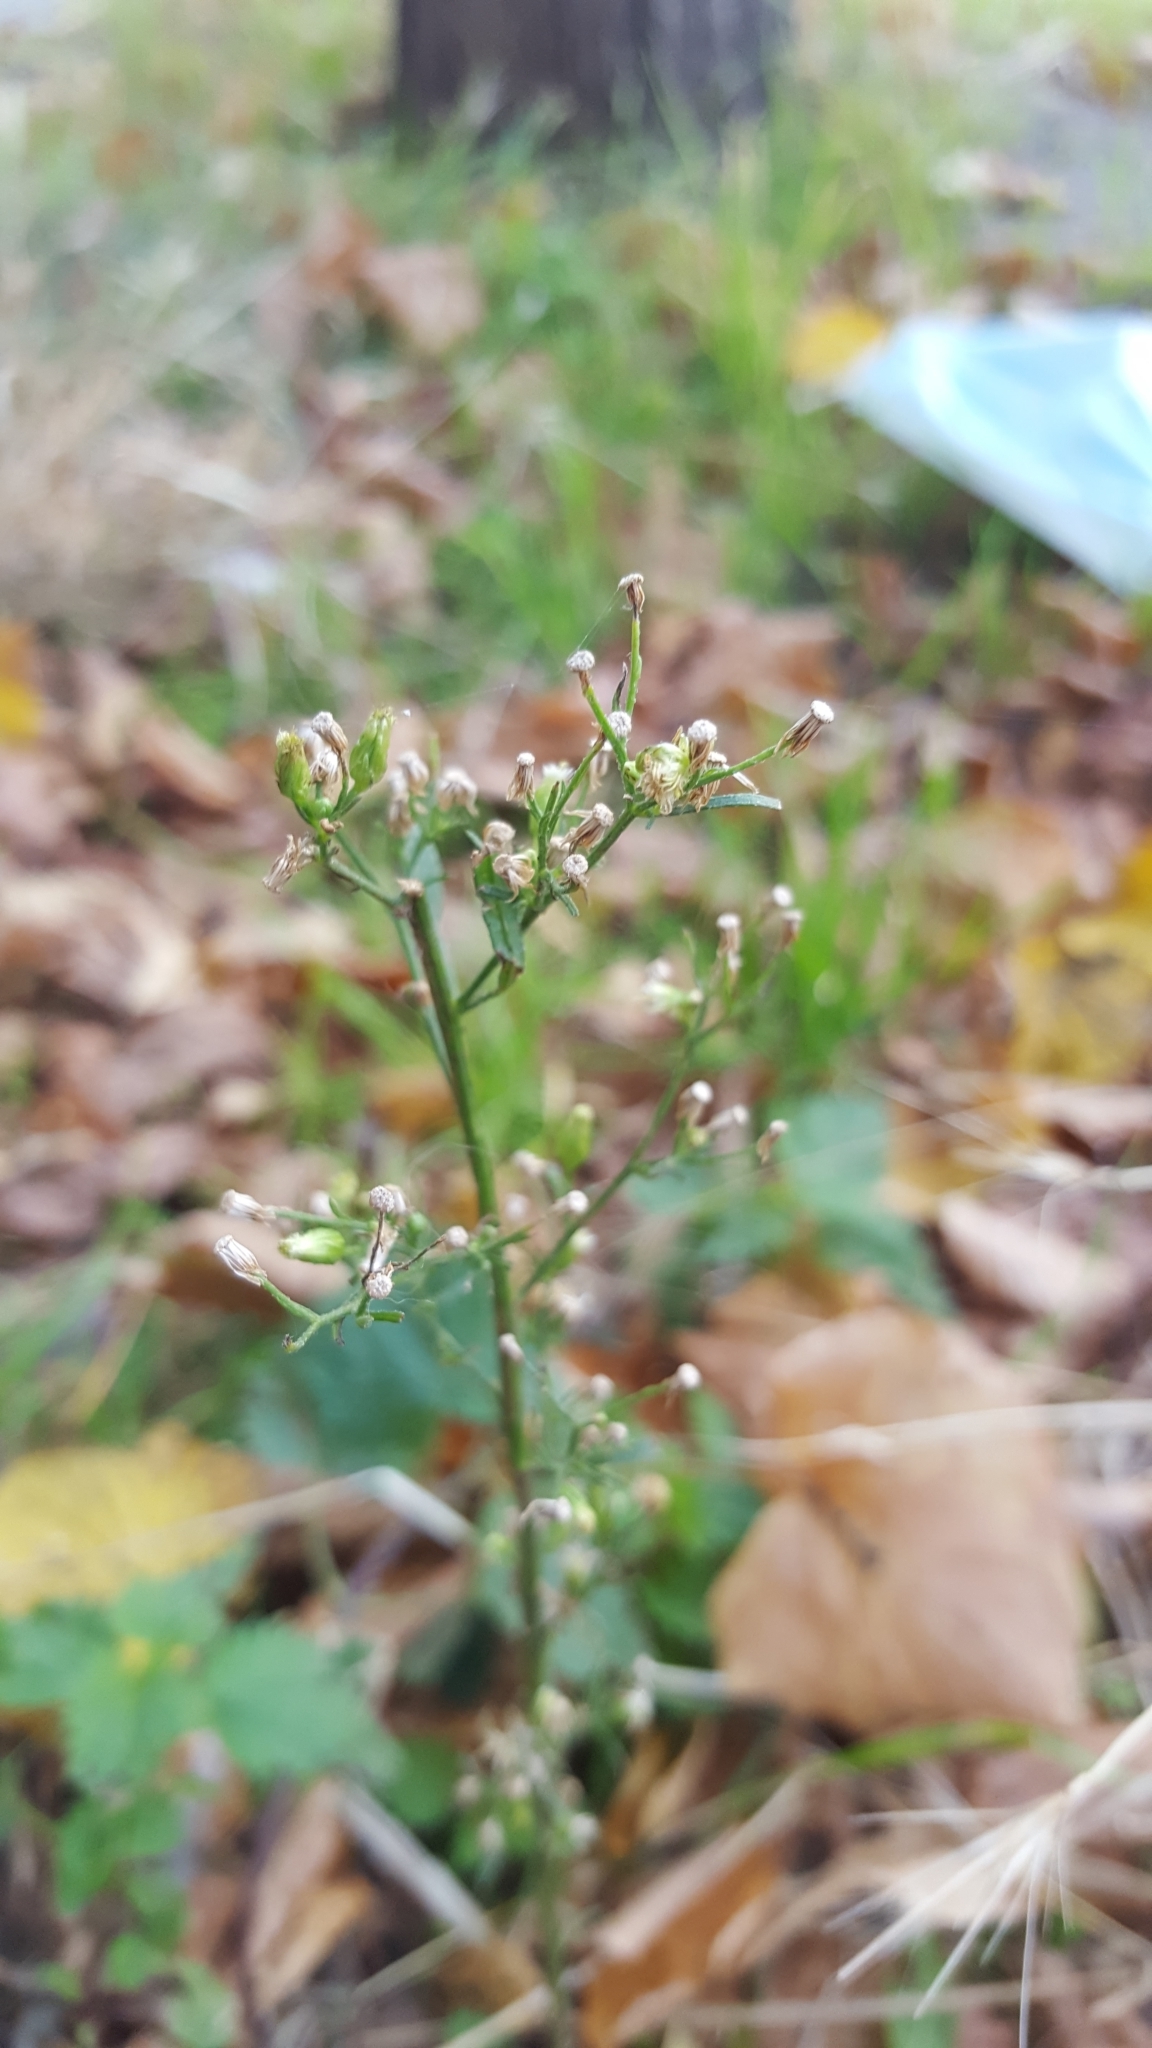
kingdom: Plantae
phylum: Tracheophyta
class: Magnoliopsida
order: Asterales
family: Asteraceae
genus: Erigeron
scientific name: Erigeron canadensis
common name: Canadian fleabane
